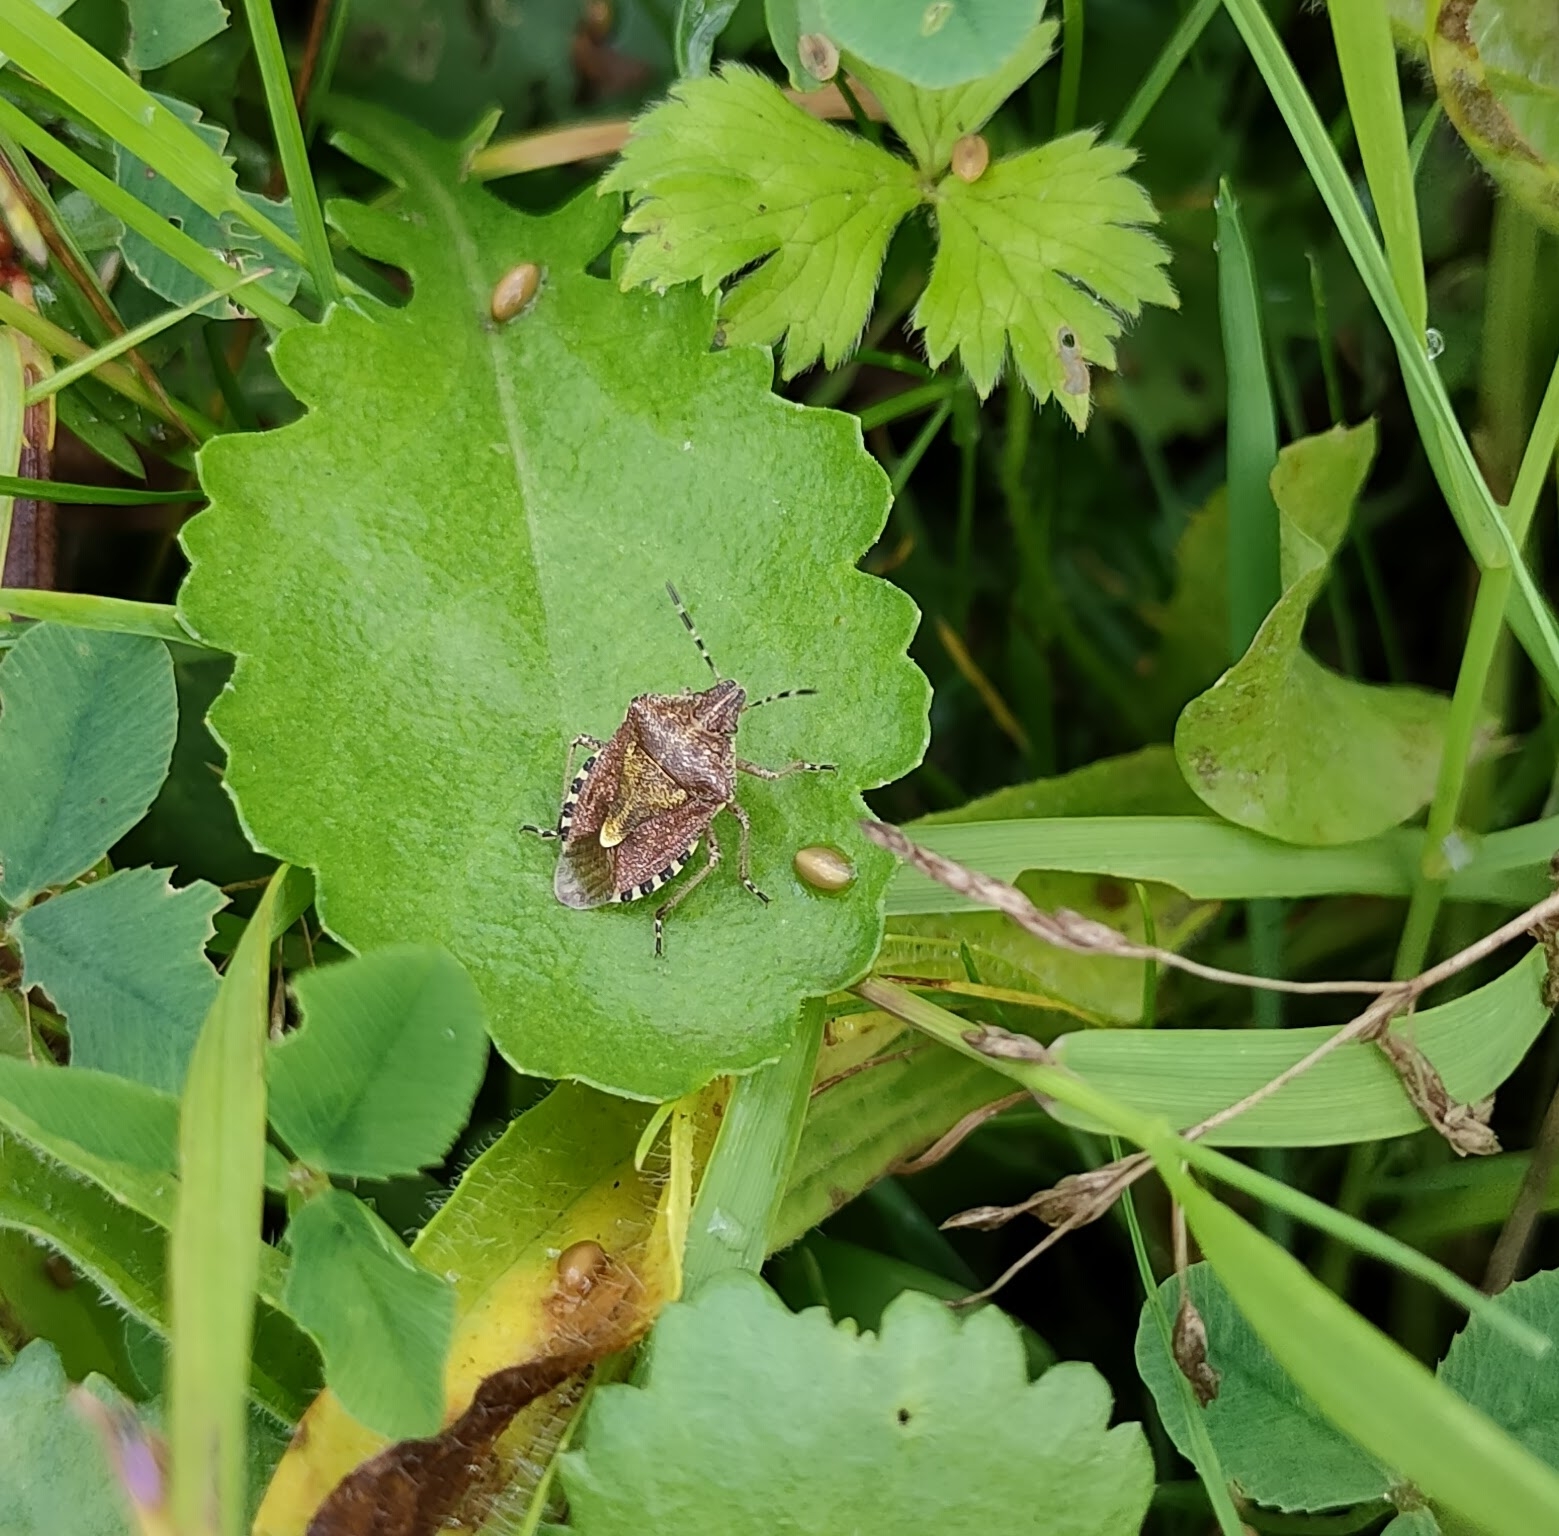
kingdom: Animalia
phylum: Arthropoda
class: Insecta
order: Hemiptera
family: Pentatomidae
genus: Dolycoris
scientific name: Dolycoris baccarum
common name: Sloe bug
